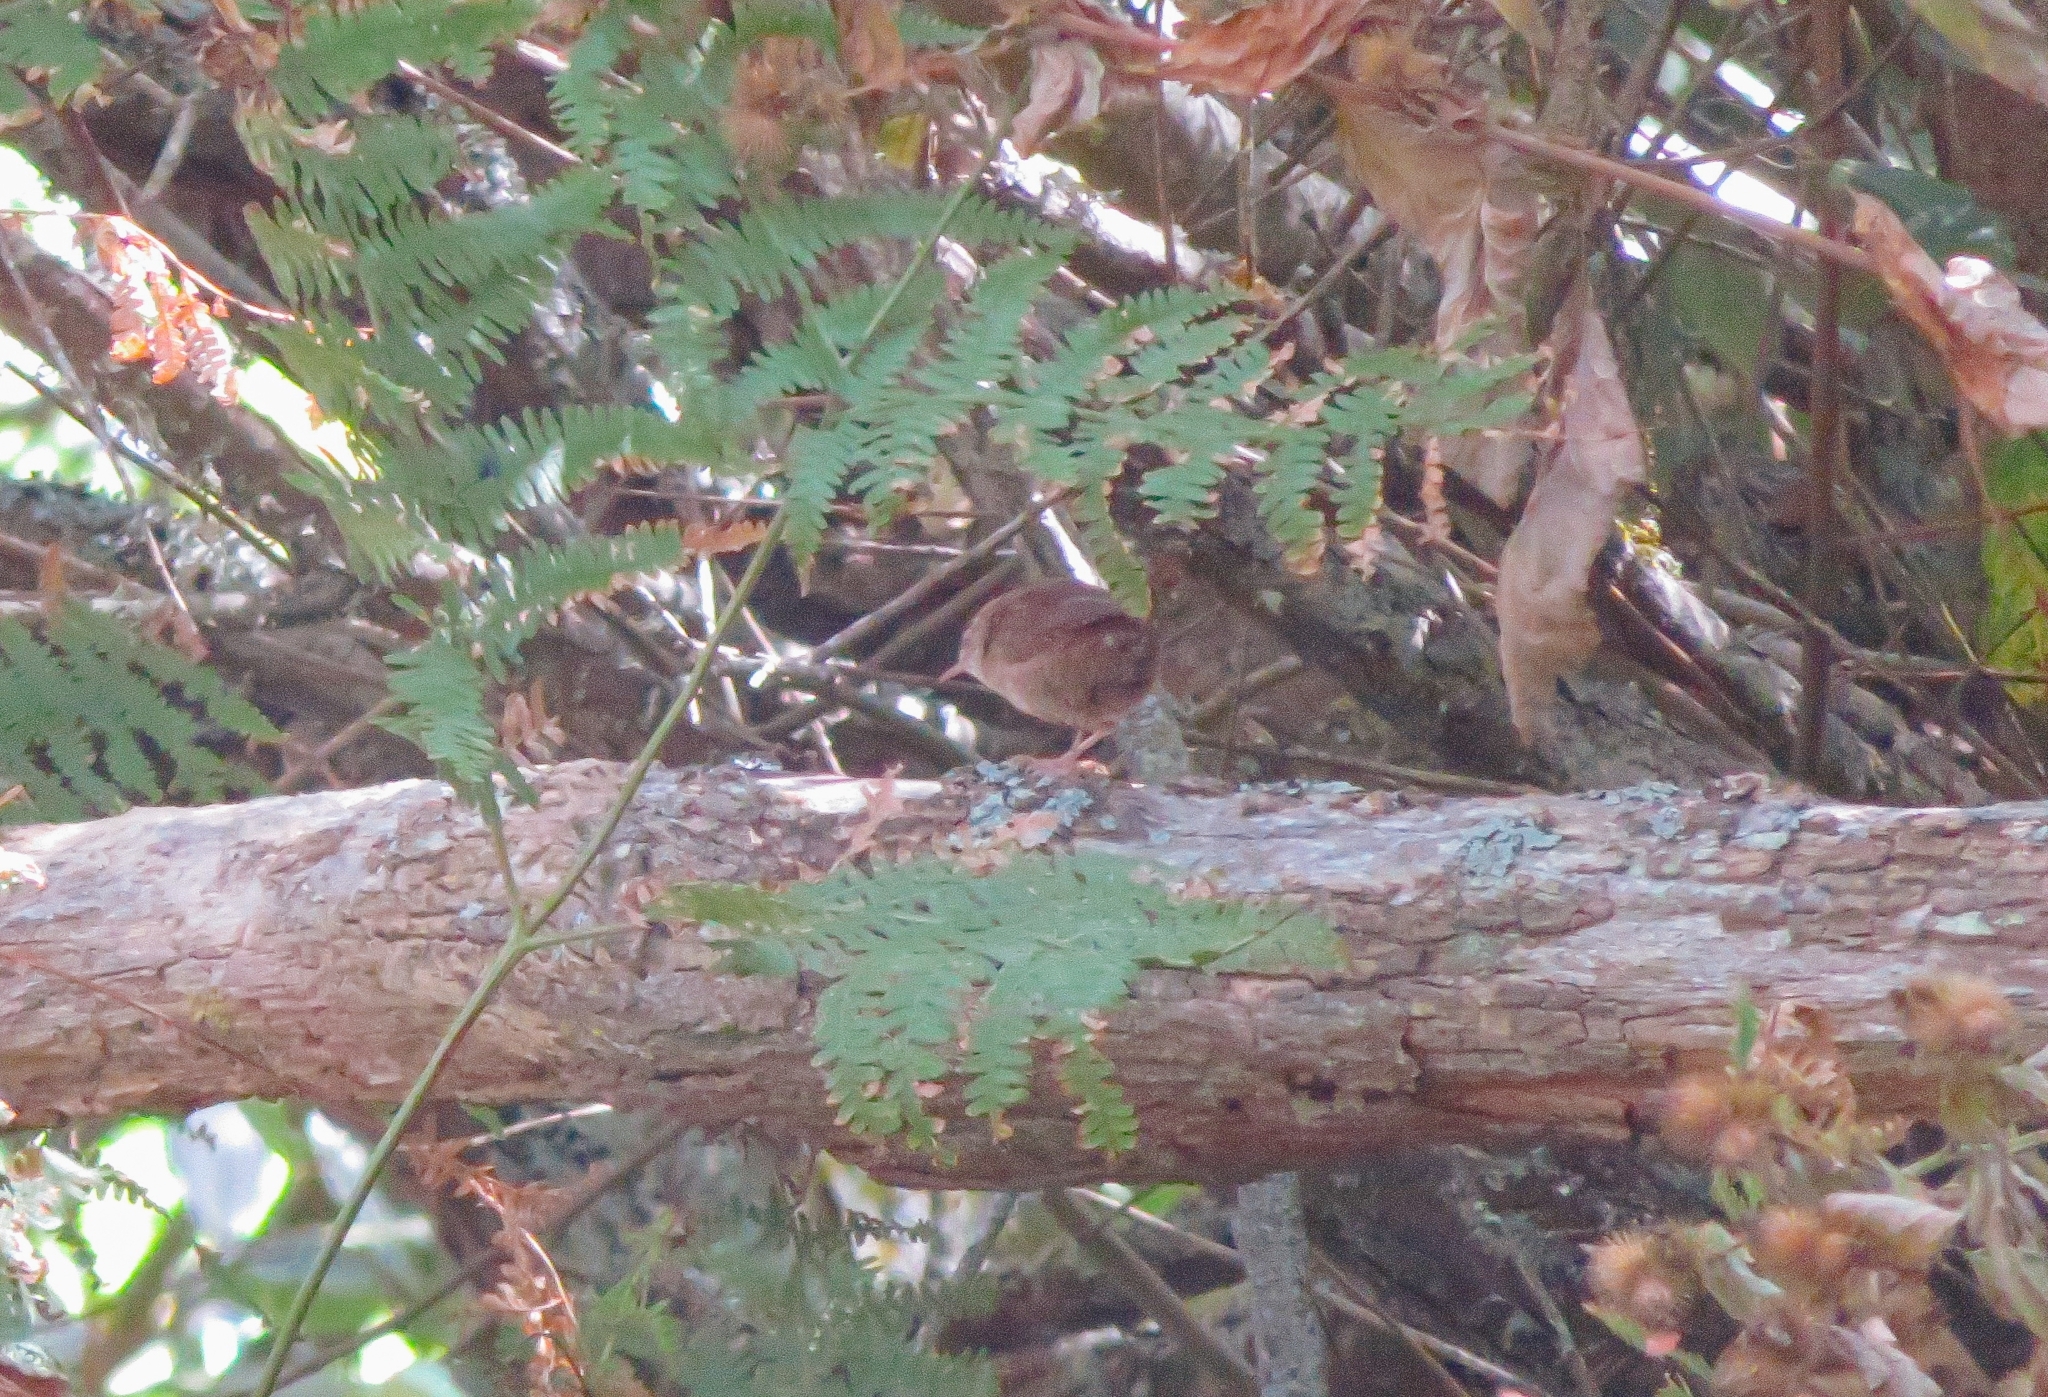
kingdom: Animalia
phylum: Chordata
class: Aves
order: Passeriformes
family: Troglodytidae
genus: Troglodytes
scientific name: Troglodytes troglodytes
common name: Eurasian wren
